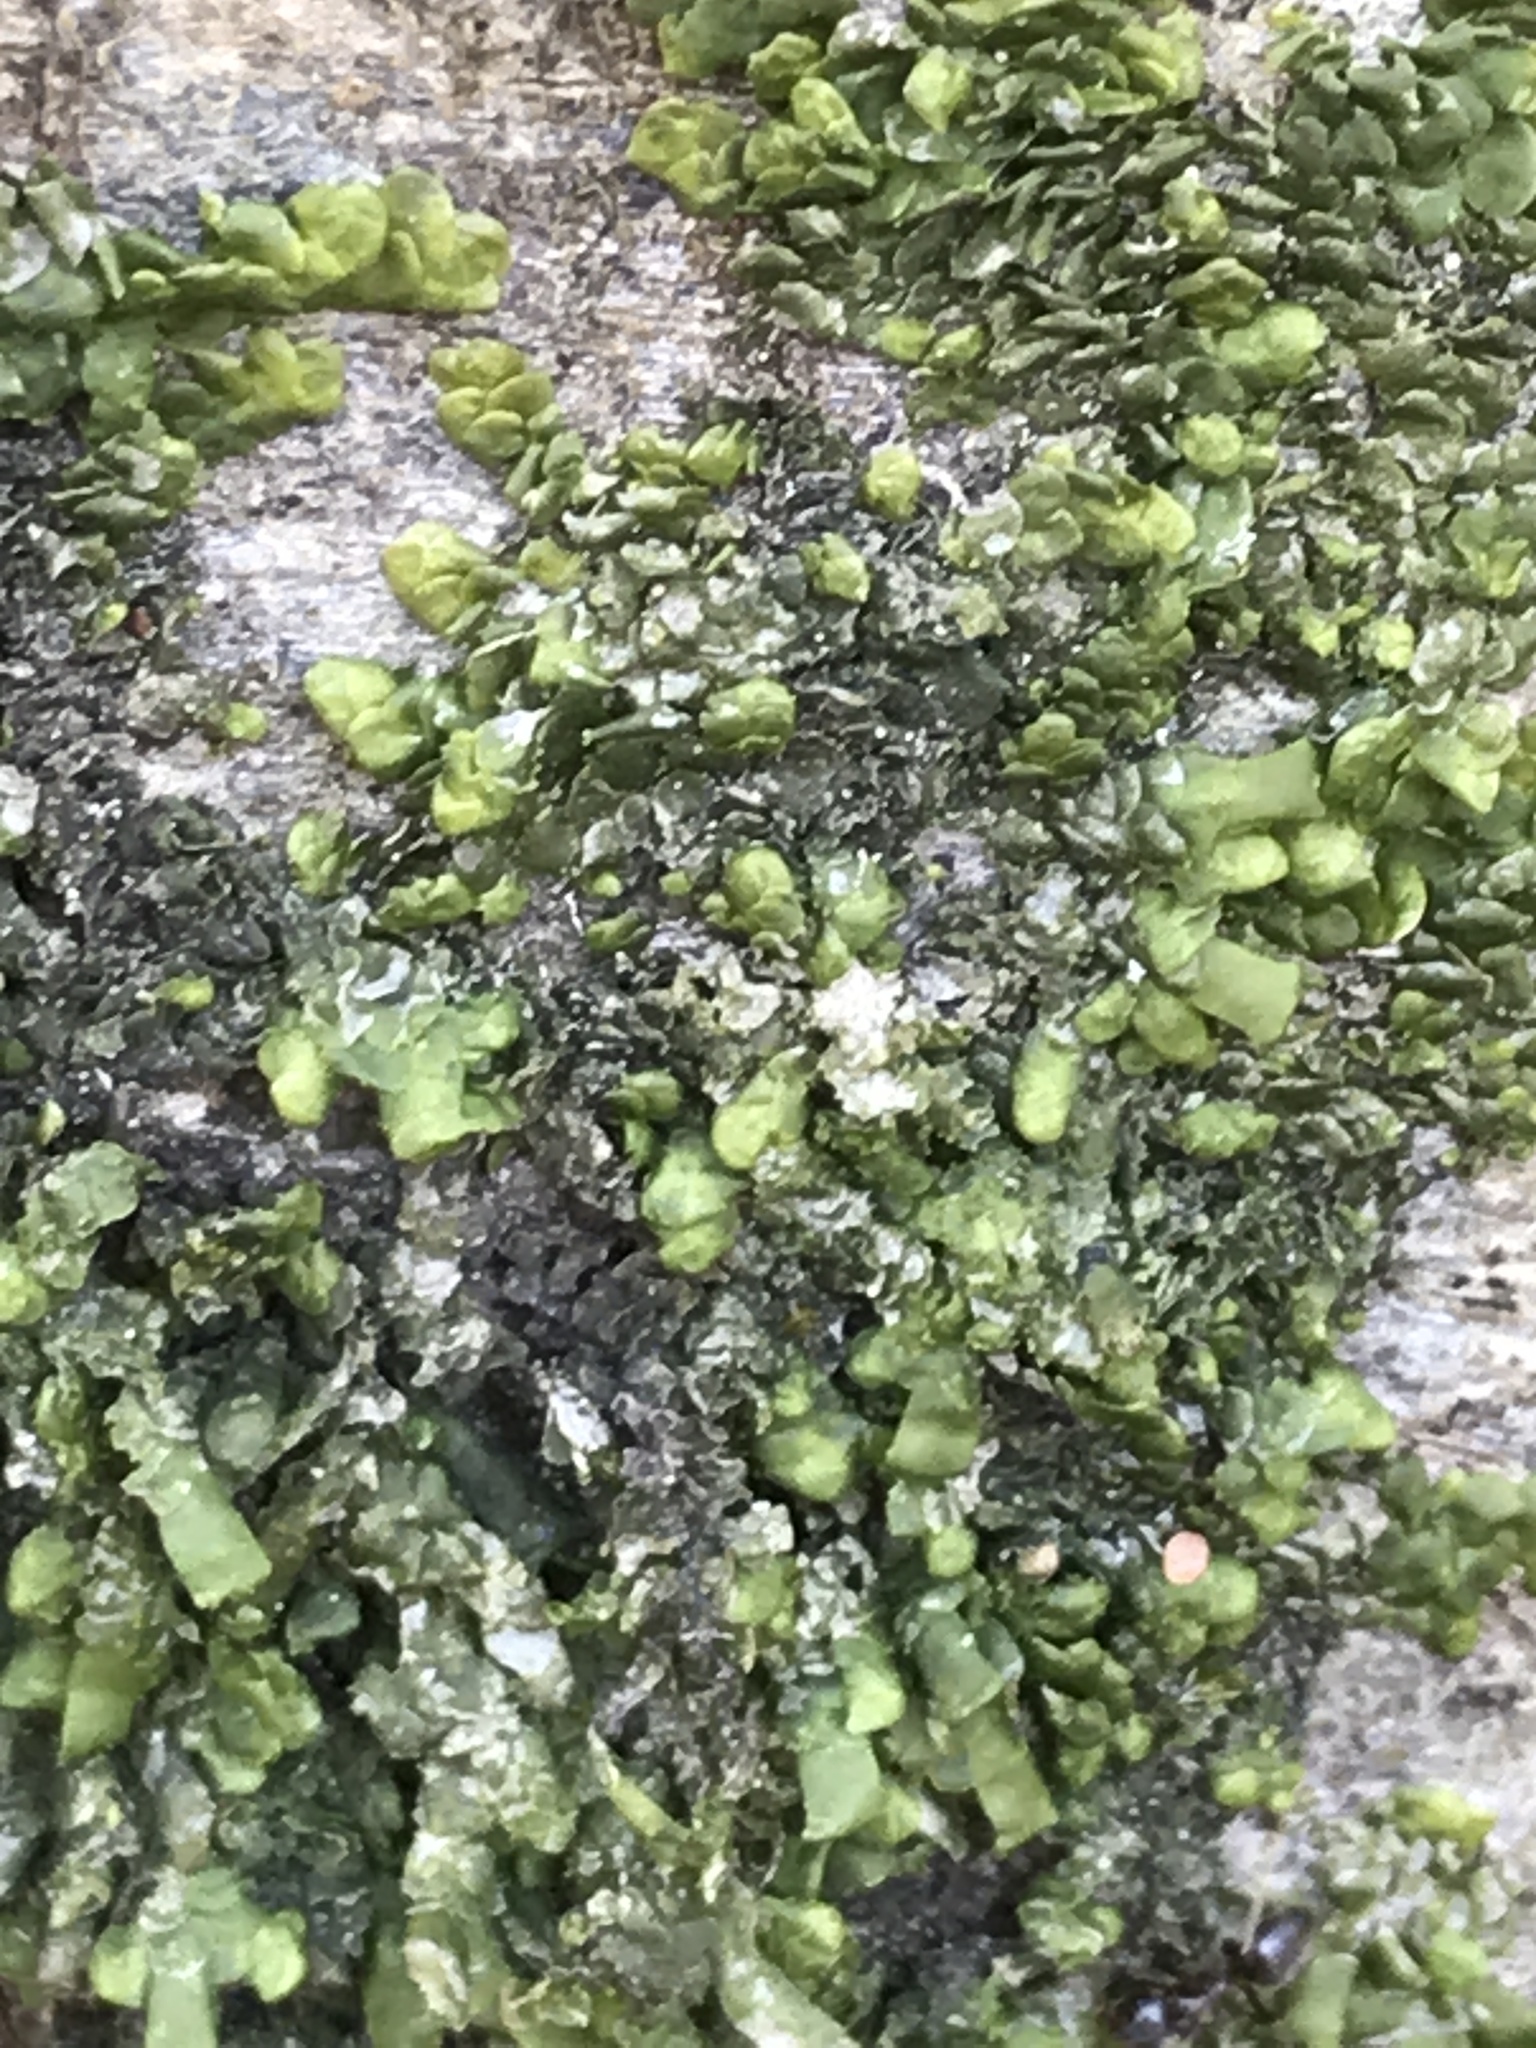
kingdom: Plantae
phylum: Marchantiophyta
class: Jungermanniopsida
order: Porellales
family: Radulaceae
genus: Radula
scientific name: Radula complanata
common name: Flat-leaved scalewort
